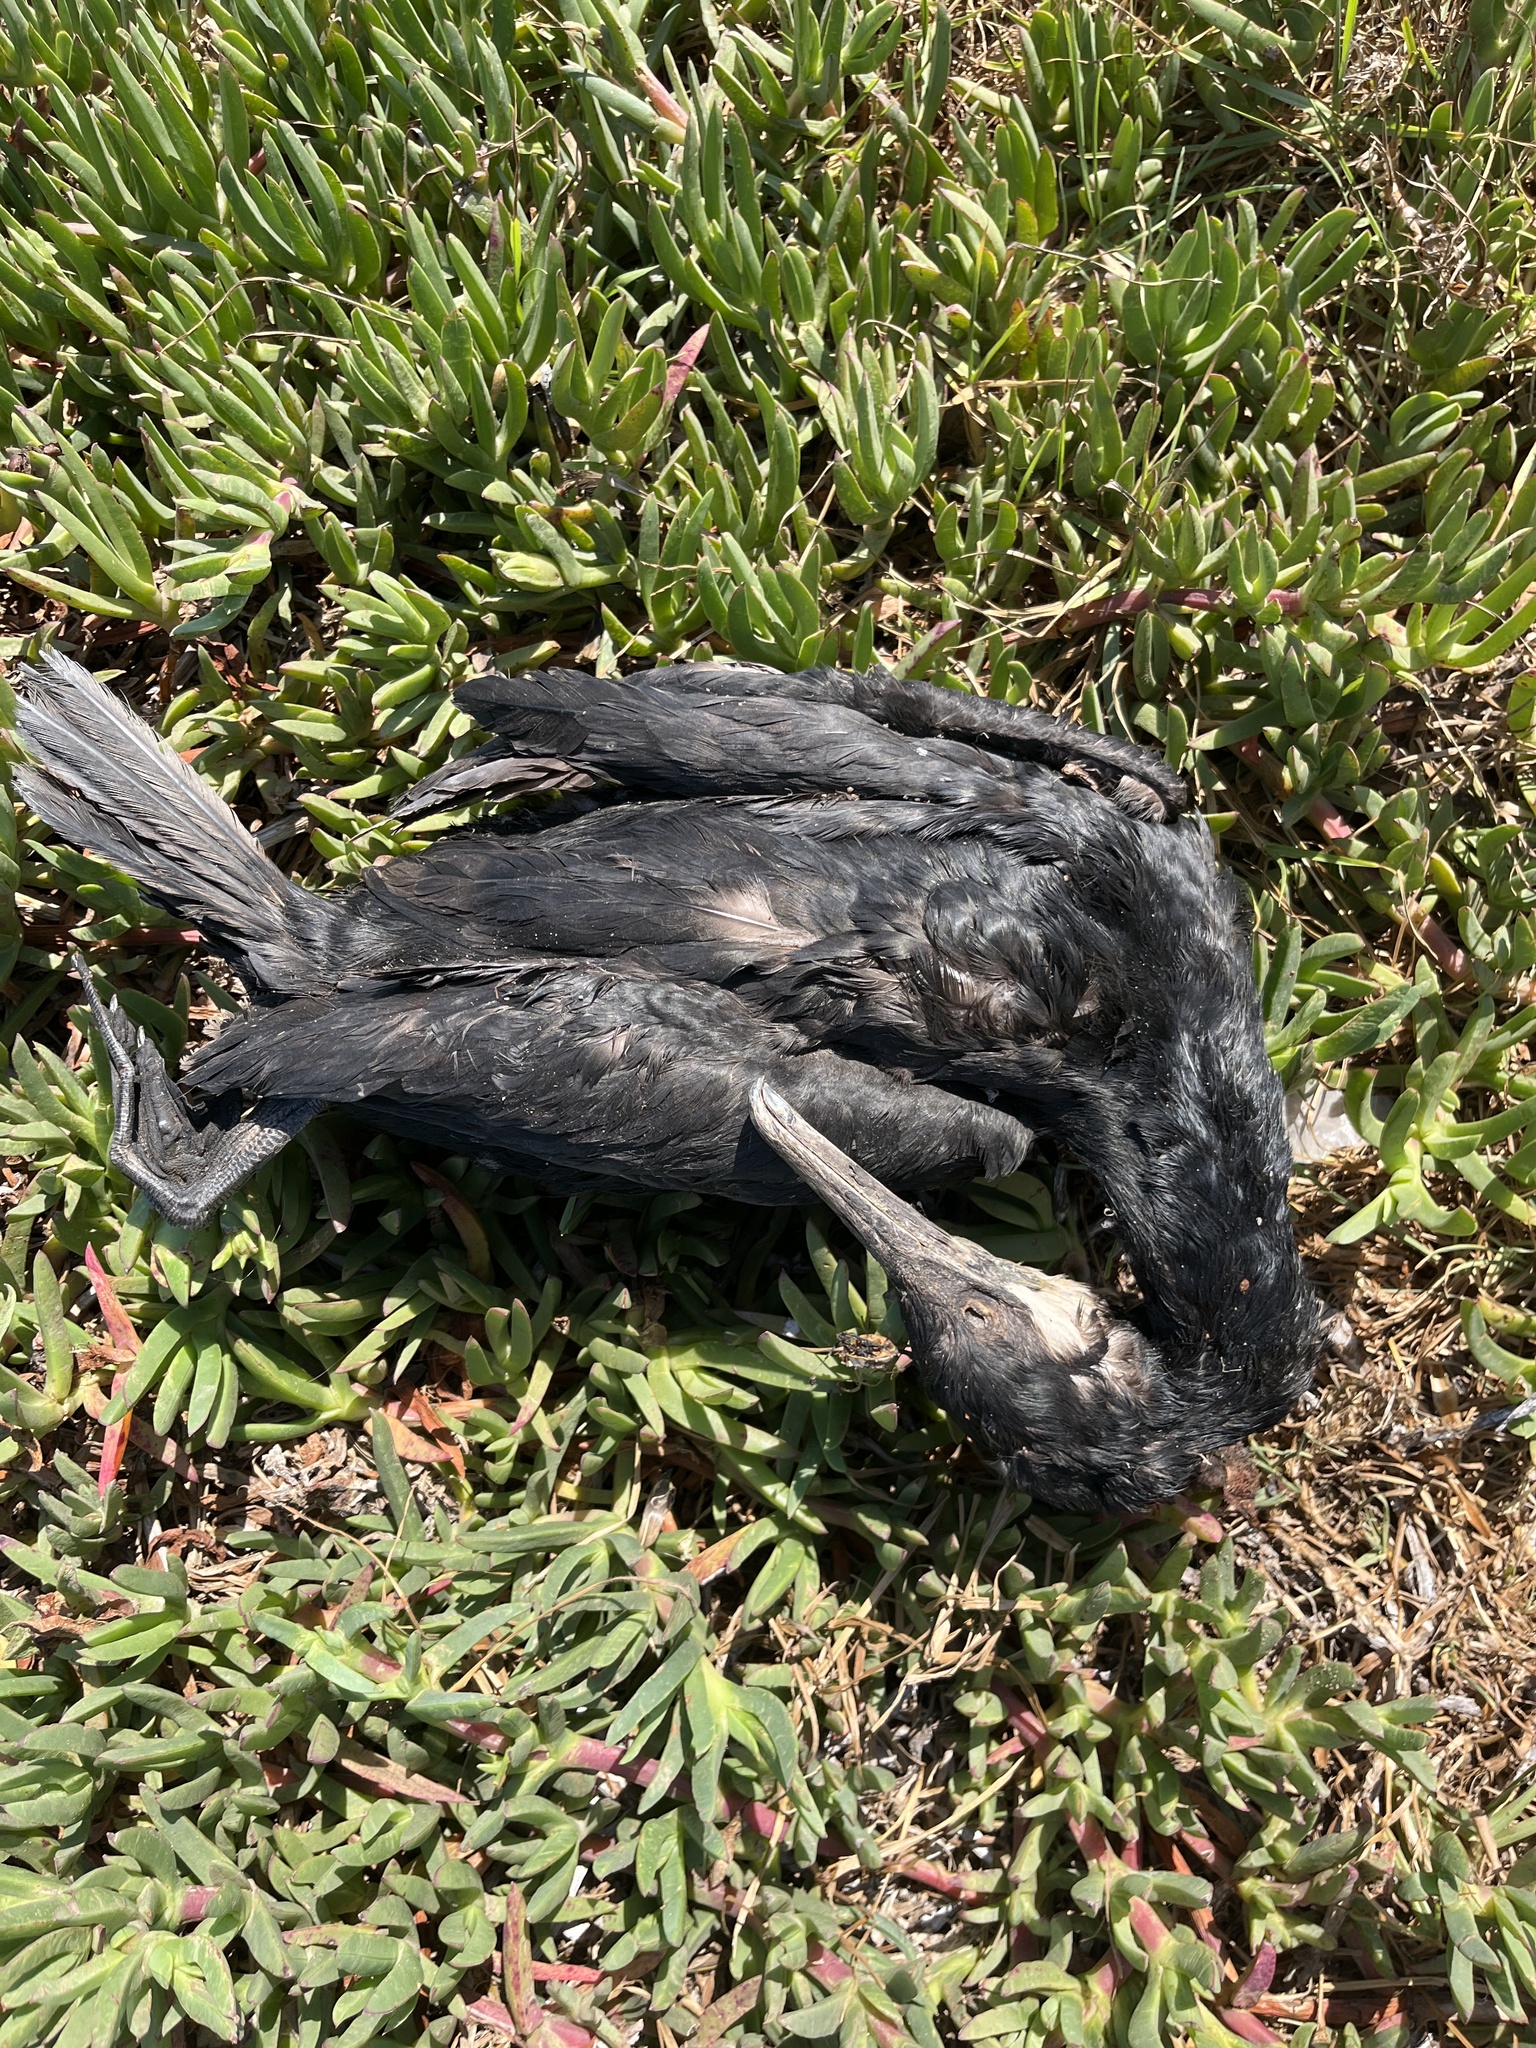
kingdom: Animalia
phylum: Chordata
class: Aves
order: Suliformes
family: Phalacrocoracidae
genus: Urile
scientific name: Urile penicillatus
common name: Brandt's cormorant
